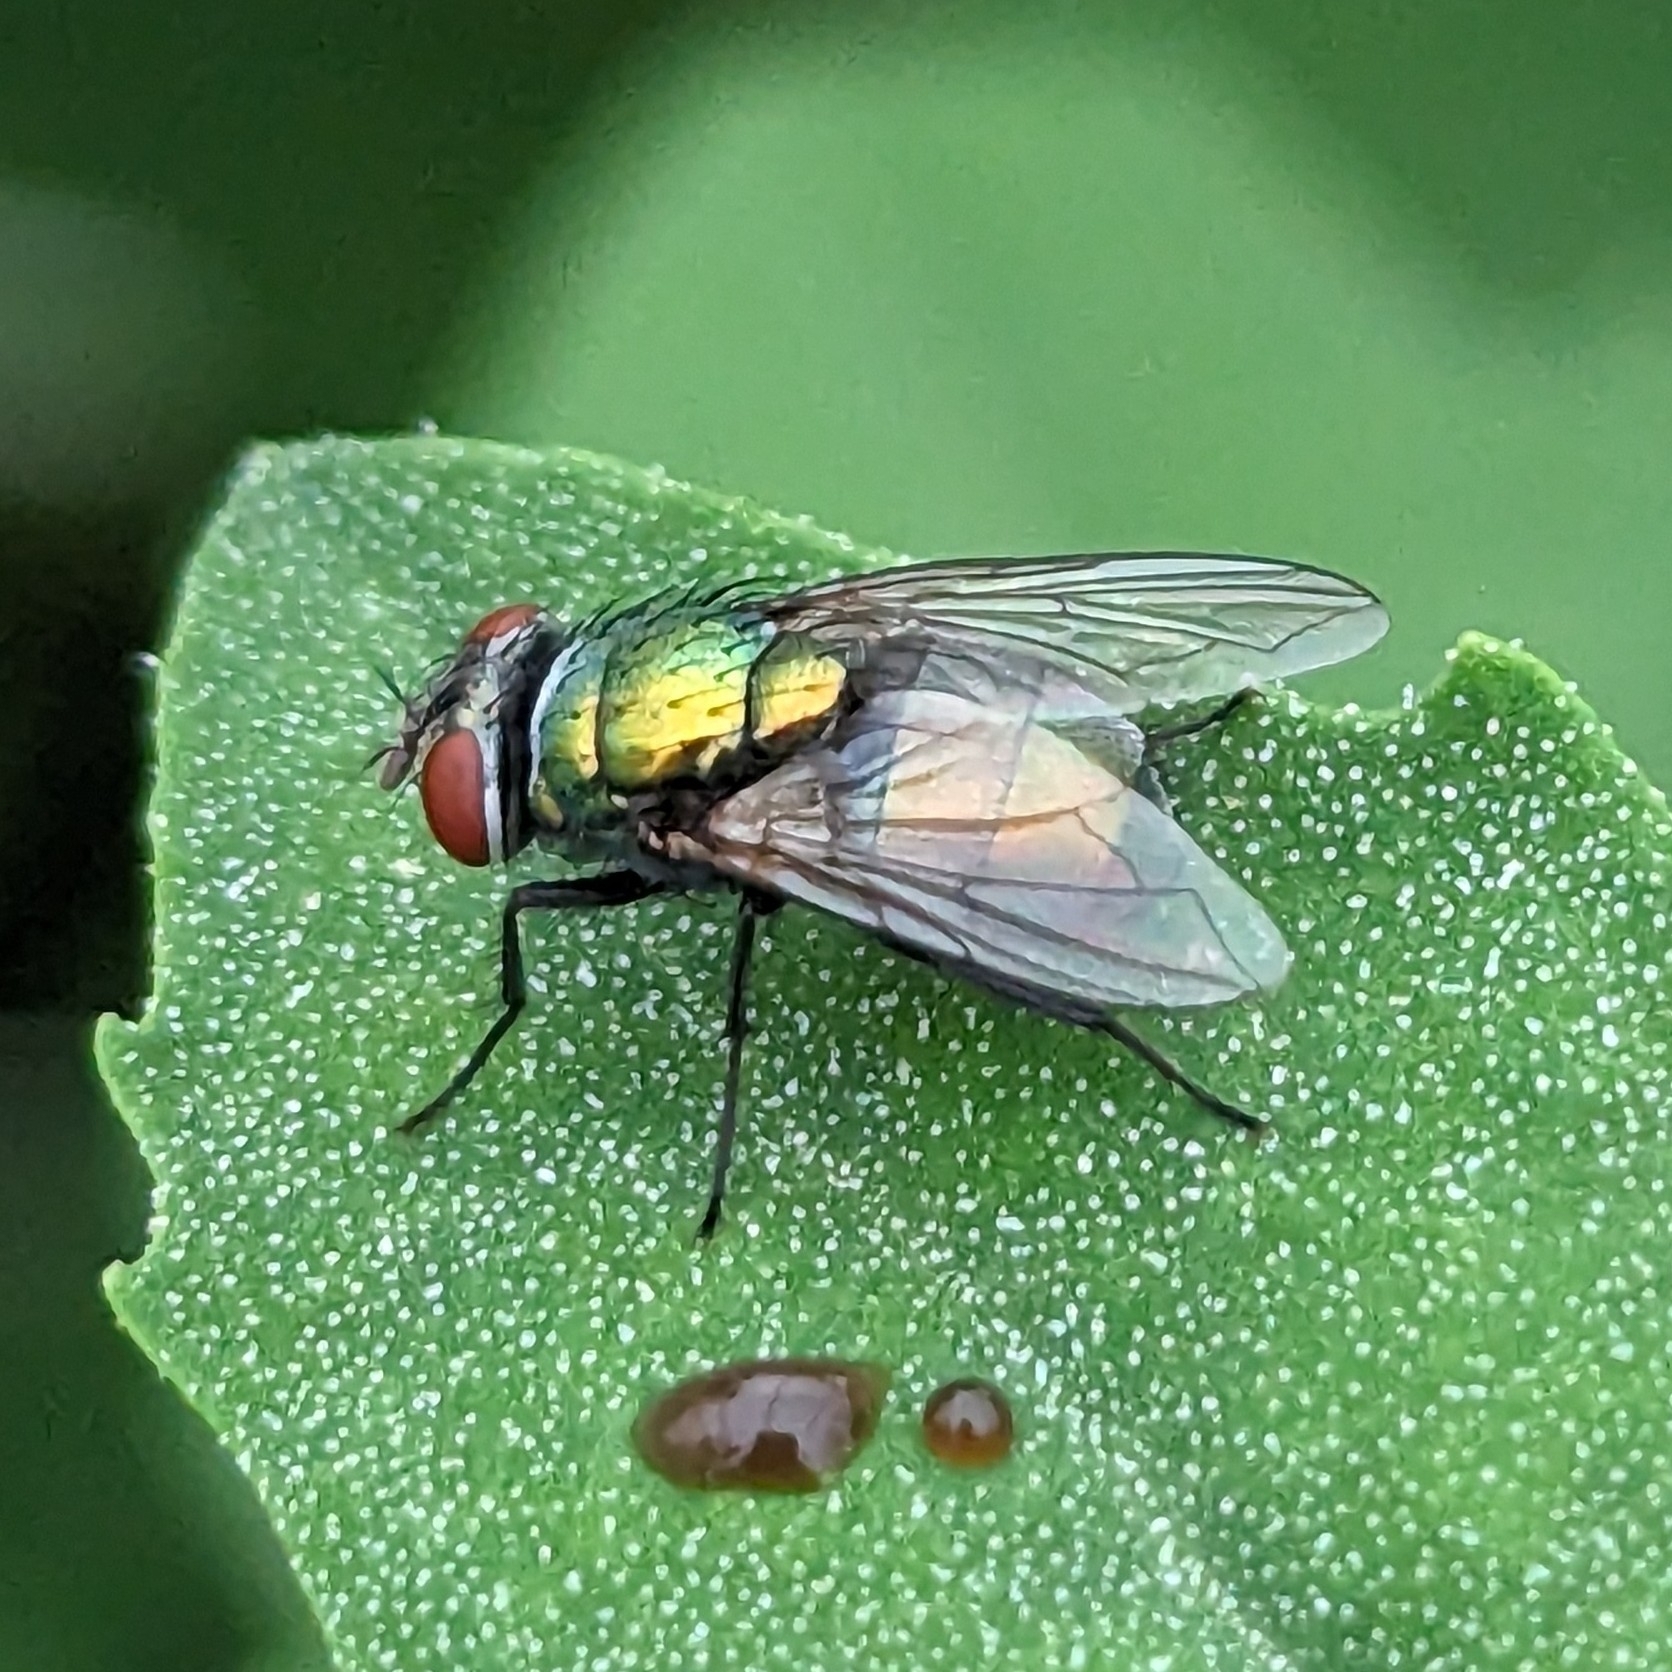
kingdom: Animalia
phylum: Arthropoda
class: Insecta
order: Diptera
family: Calliphoridae
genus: Lucilia
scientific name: Lucilia sericata
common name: Blow fly
